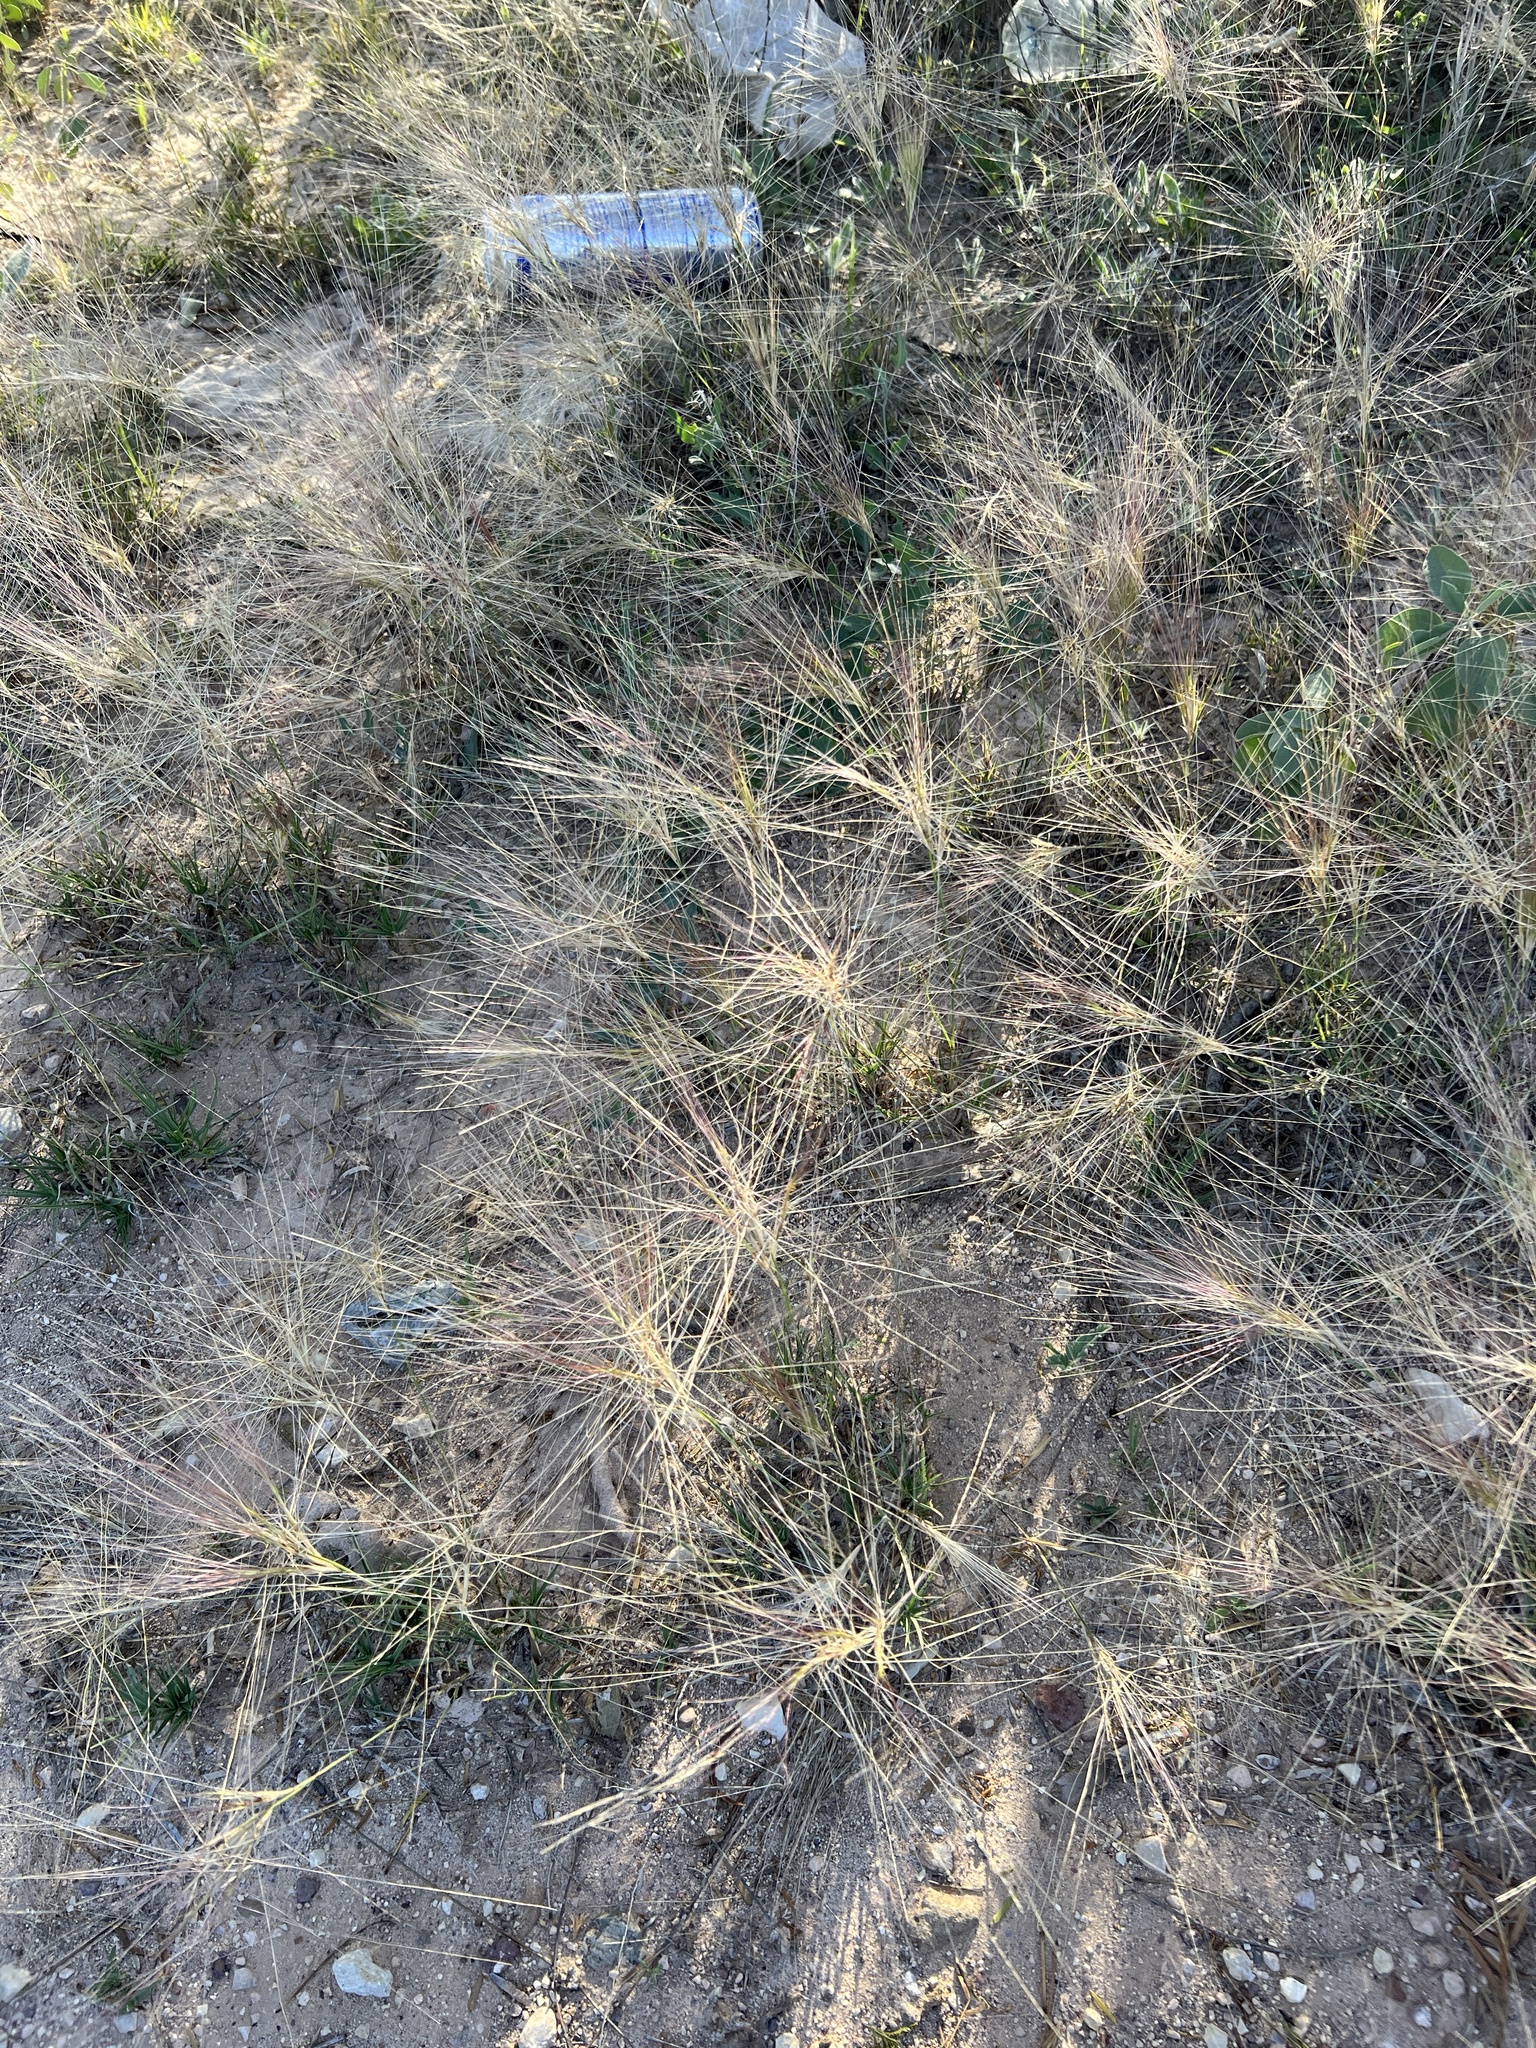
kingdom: Plantae
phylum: Tracheophyta
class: Liliopsida
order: Poales
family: Poaceae
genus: Scleropogon
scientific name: Scleropogon brevifolius
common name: Burro grass
